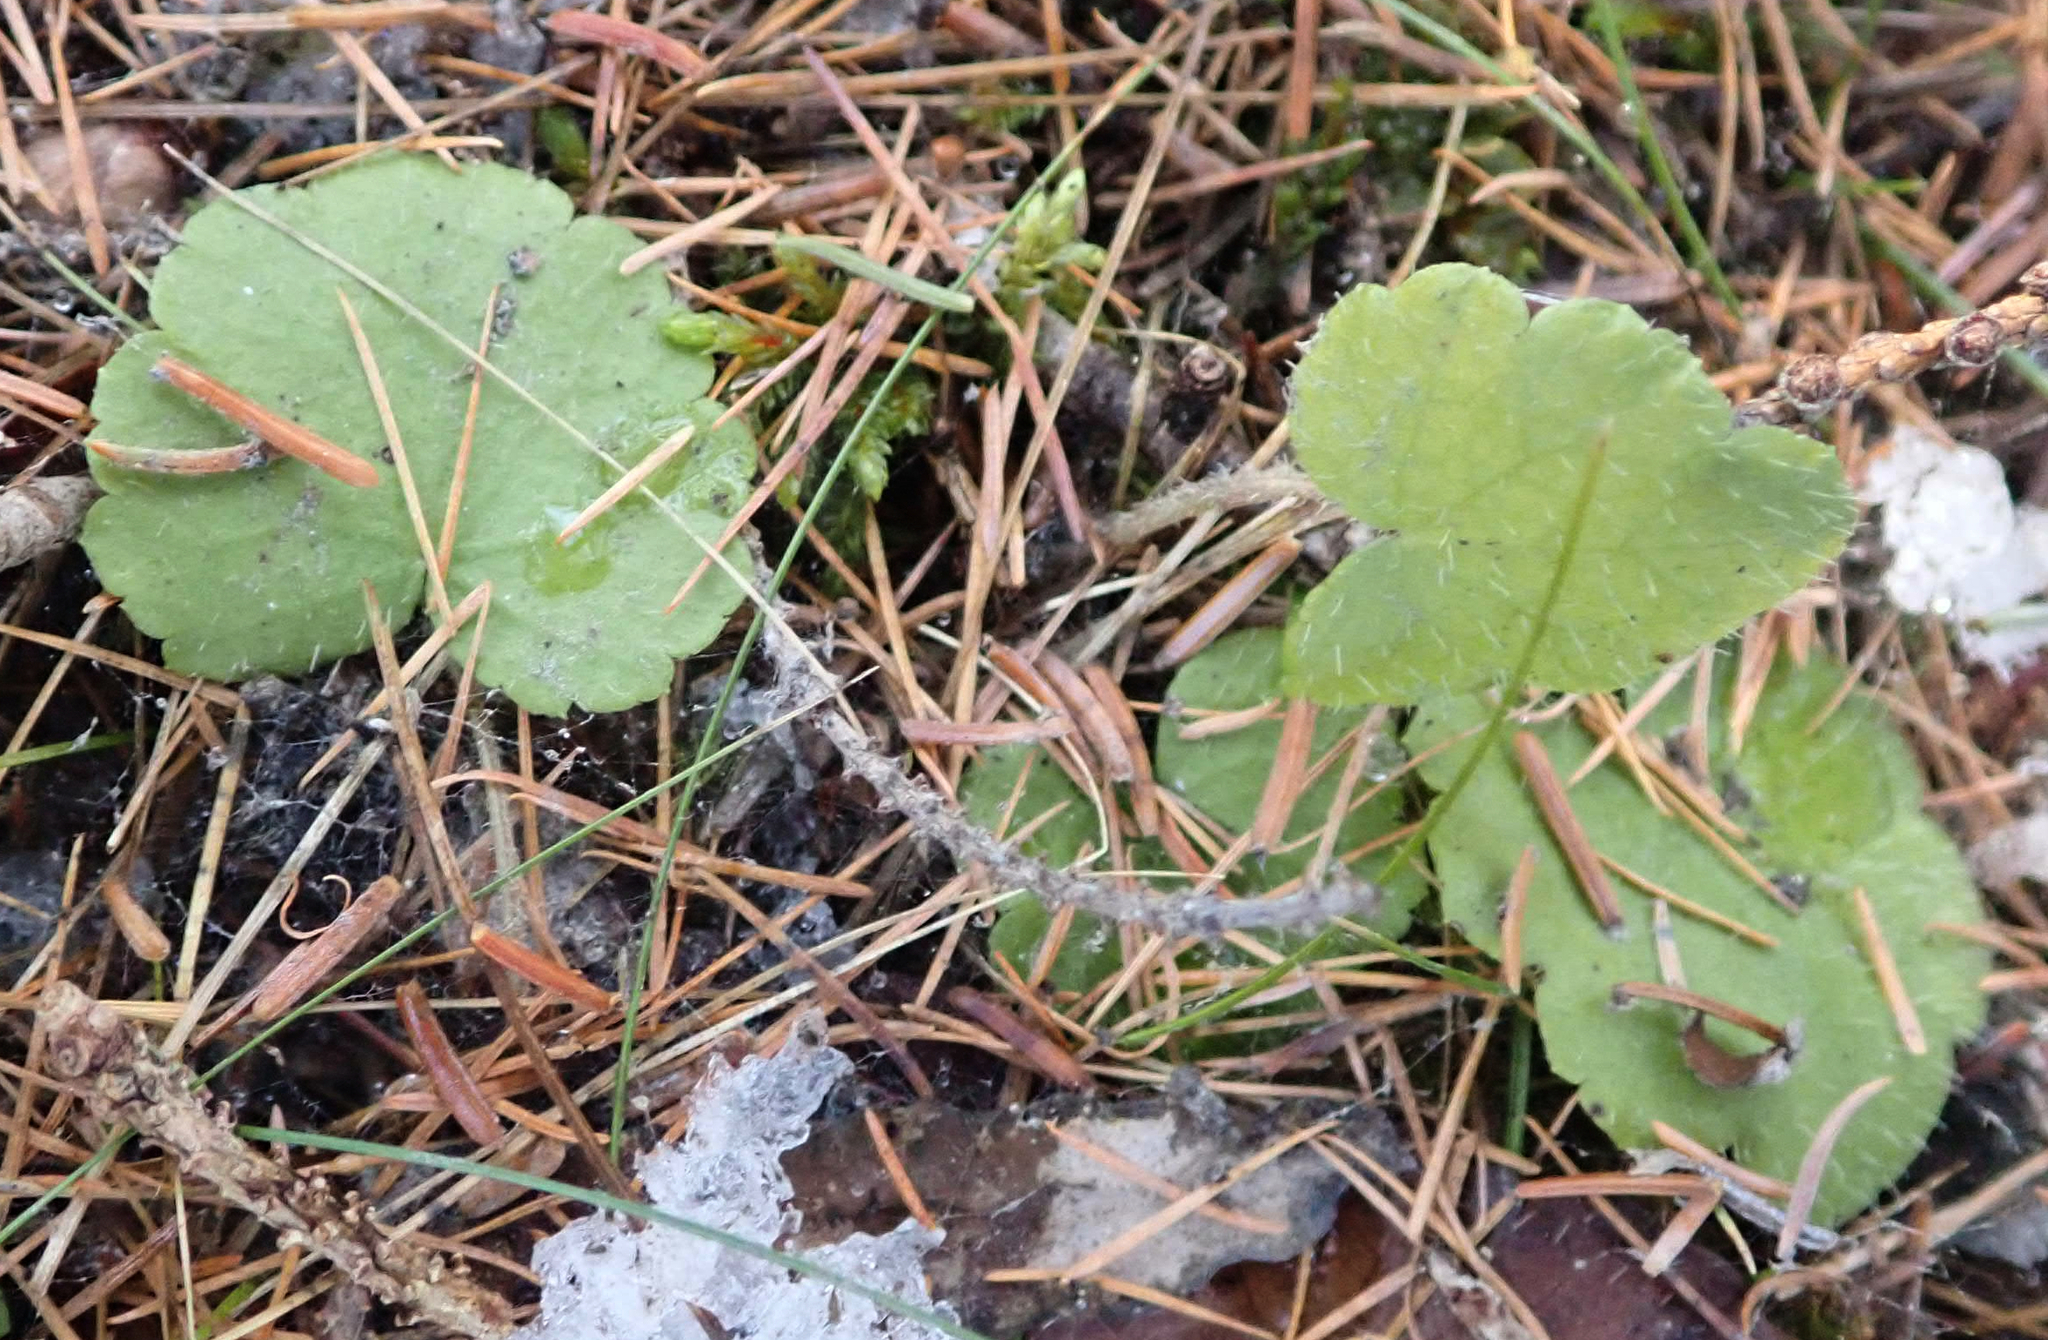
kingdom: Plantae
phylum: Tracheophyta
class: Magnoliopsida
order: Saxifragales
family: Saxifragaceae
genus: Mitella
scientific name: Mitella nuda
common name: Bare-stemmed bishop's-cap
